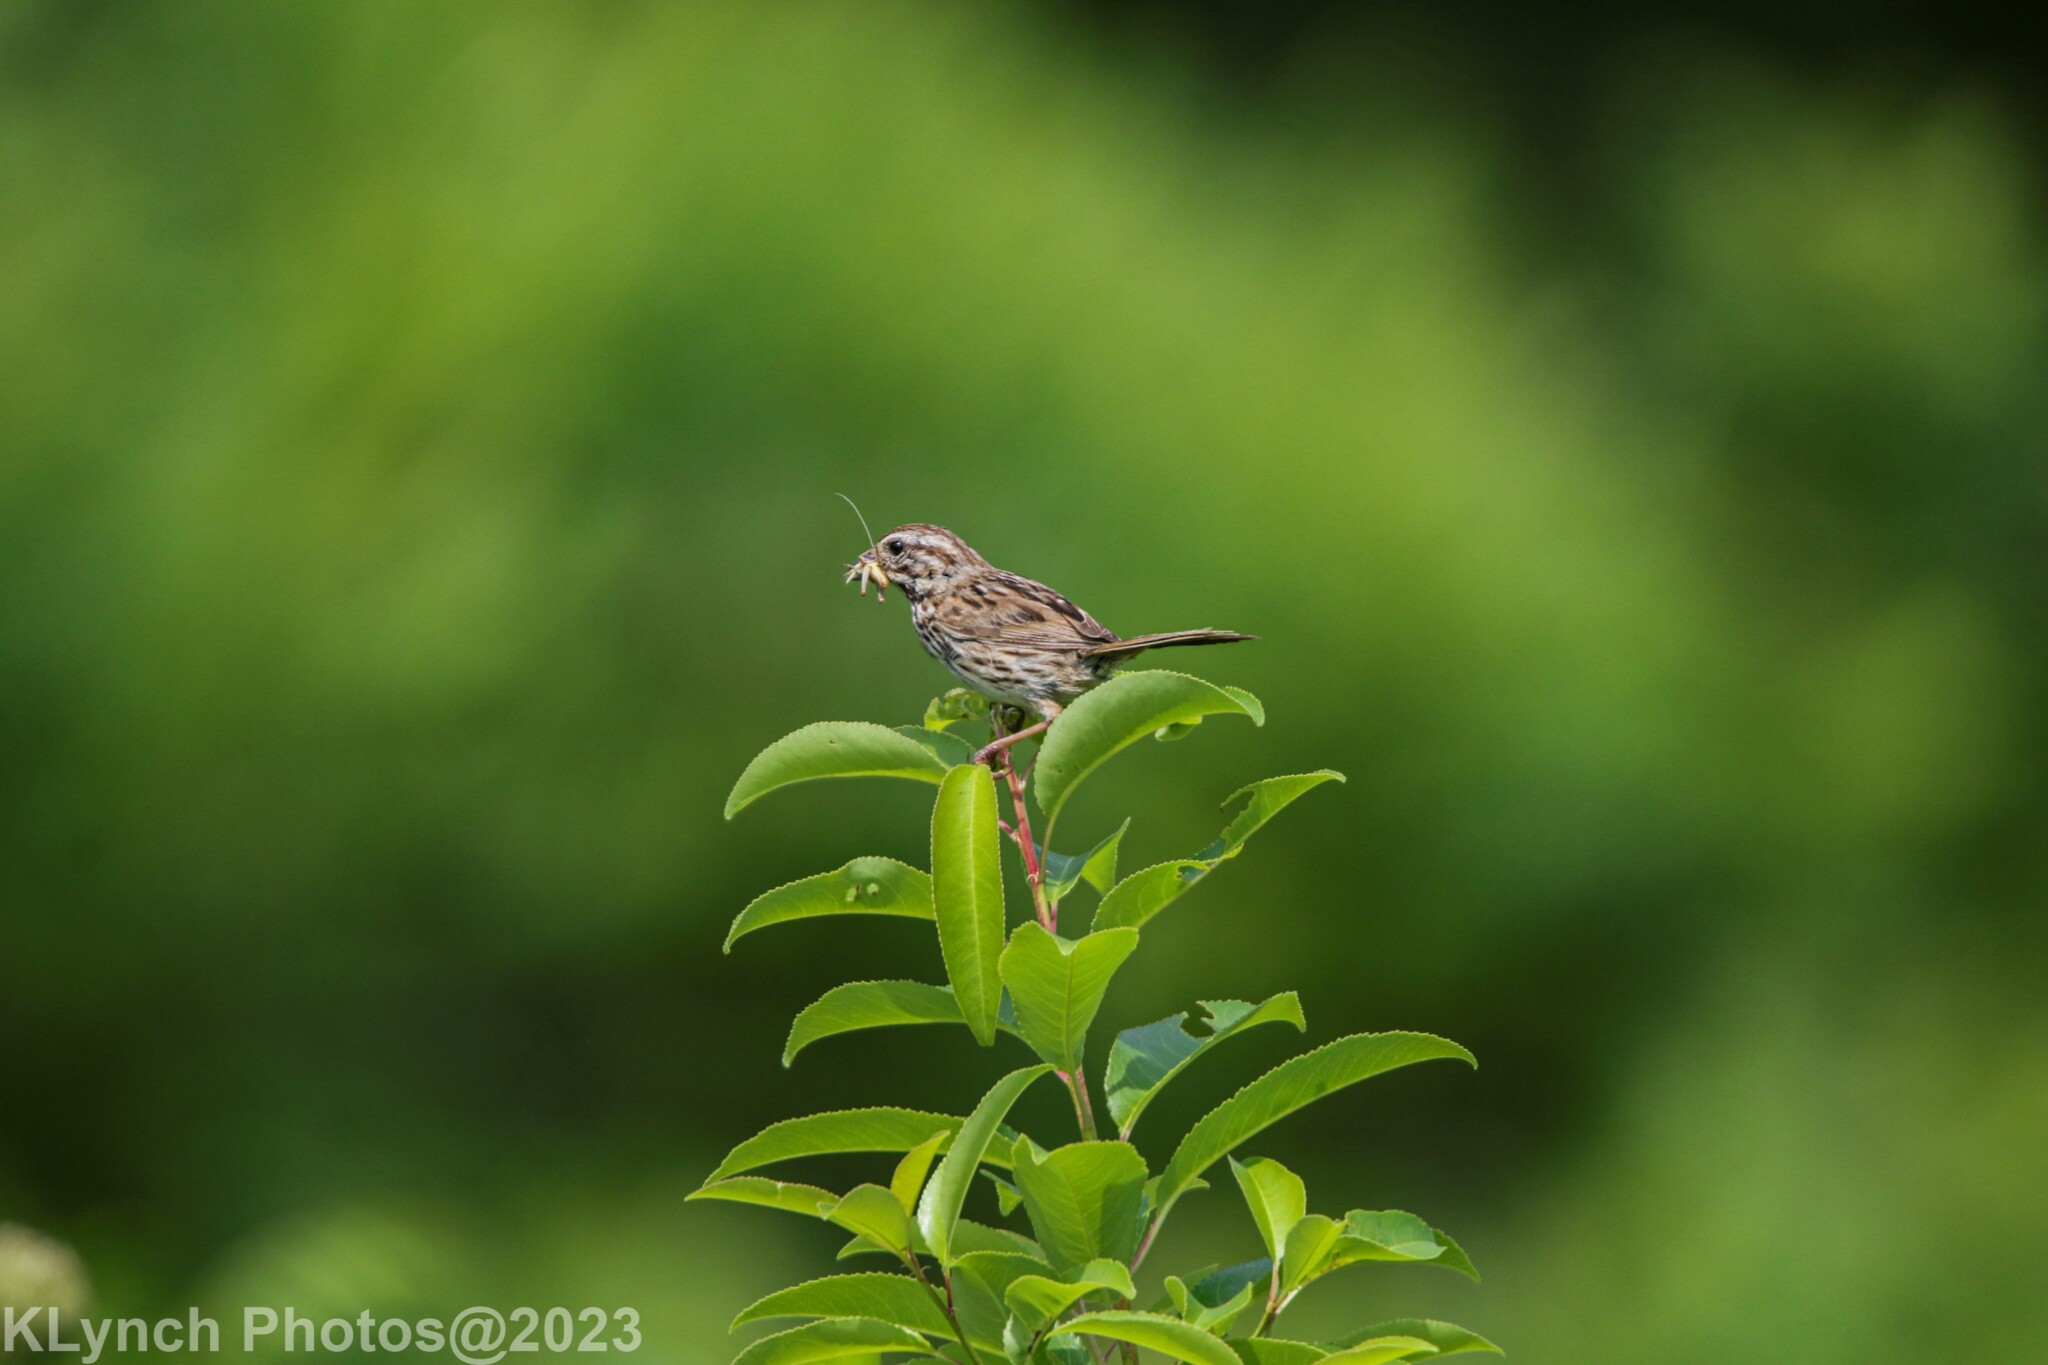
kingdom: Animalia
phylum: Chordata
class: Aves
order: Passeriformes
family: Passerellidae
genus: Melospiza
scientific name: Melospiza melodia
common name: Song sparrow
